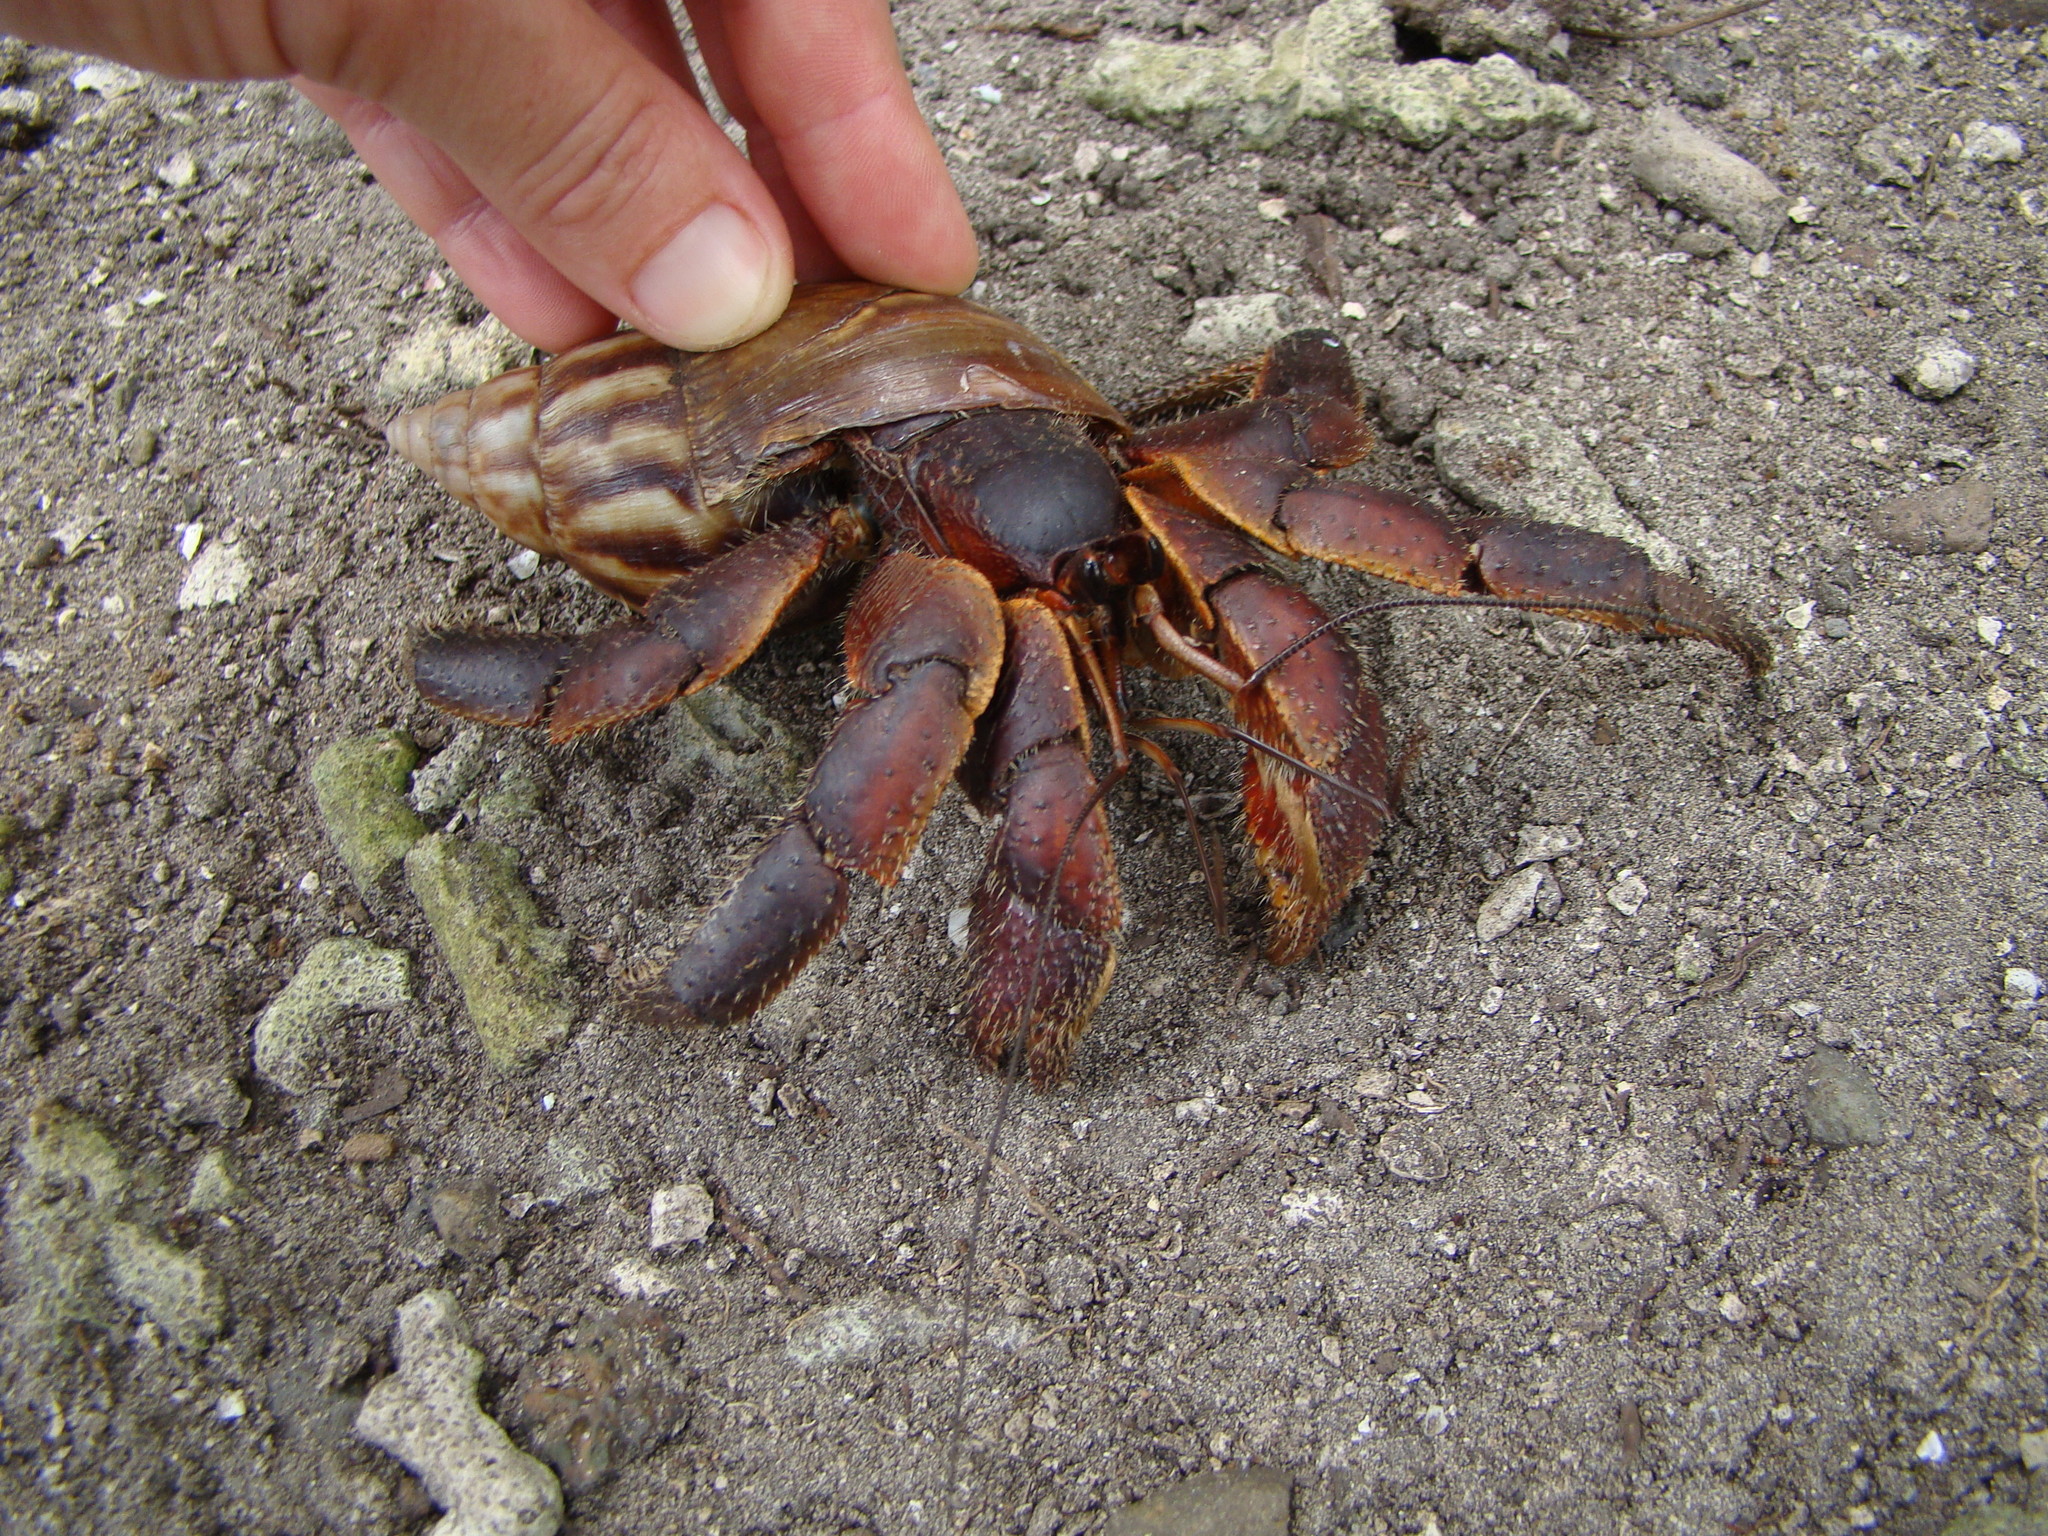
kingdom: Animalia
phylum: Arthropoda
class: Malacostraca
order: Decapoda
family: Coenobitidae
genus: Coenobita
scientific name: Coenobita spinosus
